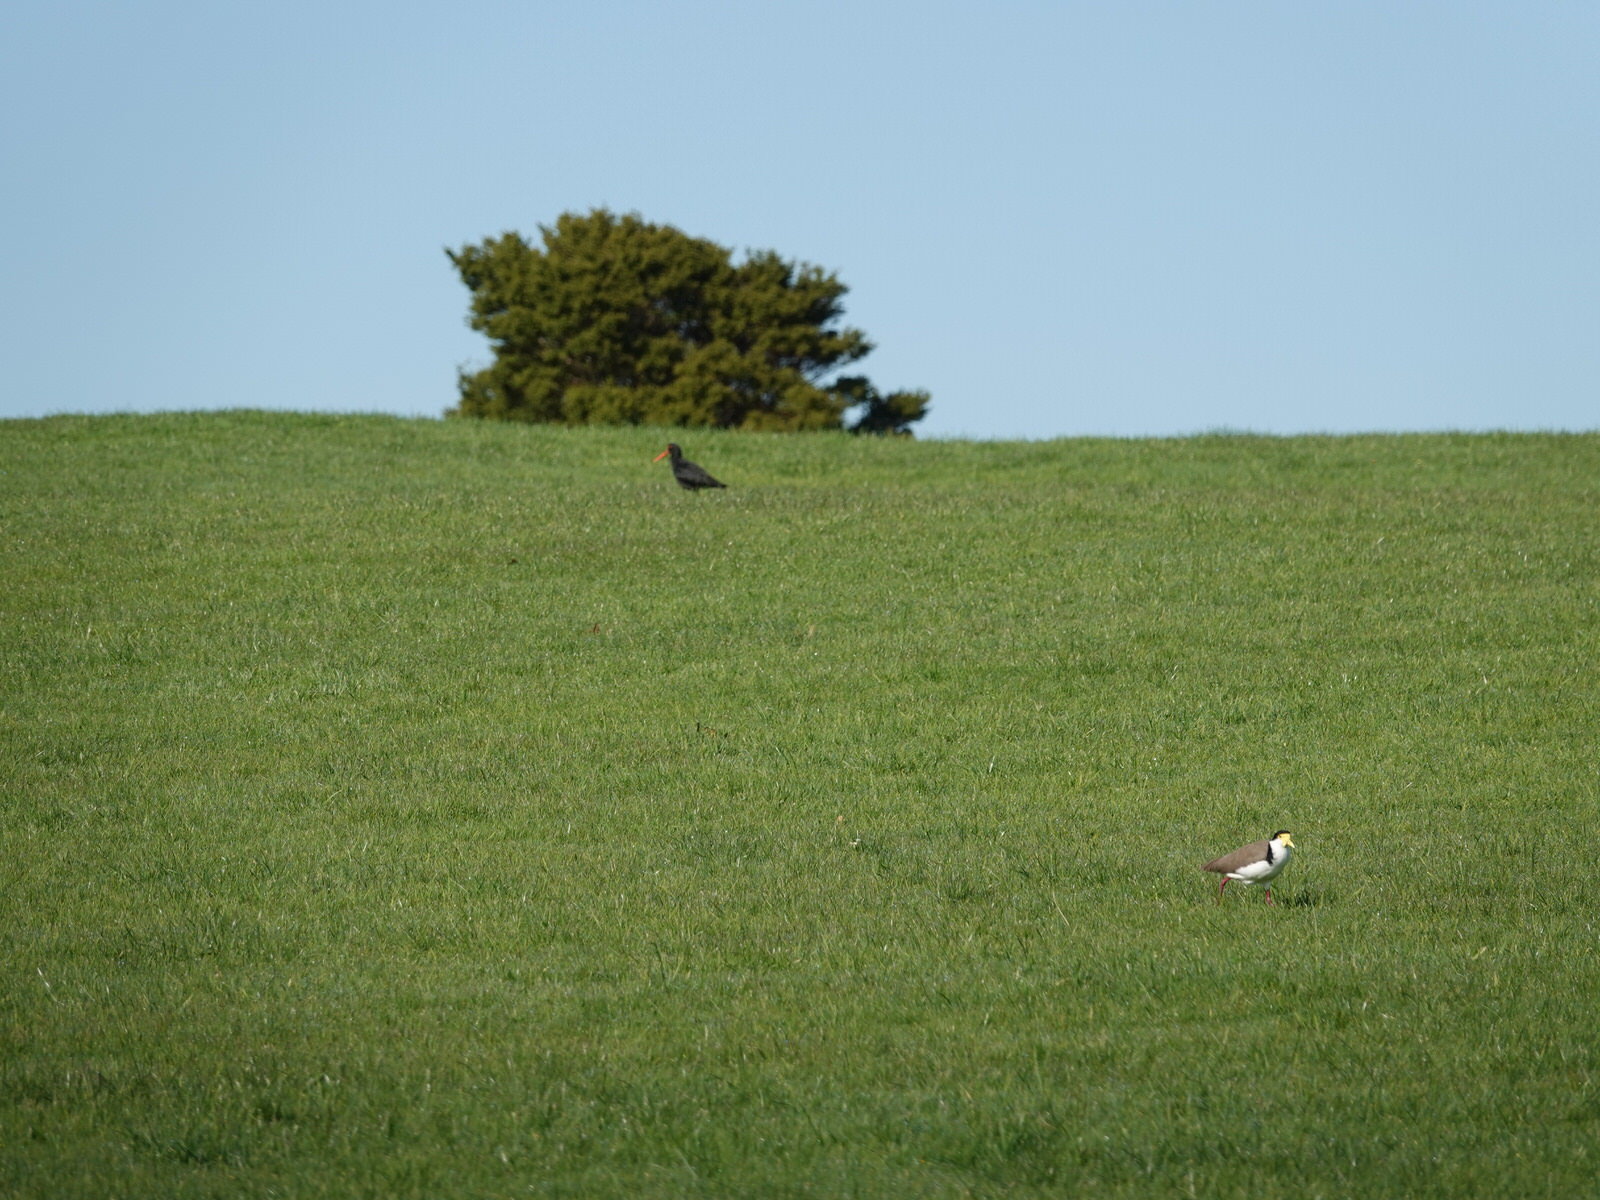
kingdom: Animalia
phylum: Chordata
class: Aves
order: Charadriiformes
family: Charadriidae
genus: Vanellus
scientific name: Vanellus miles
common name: Masked lapwing
